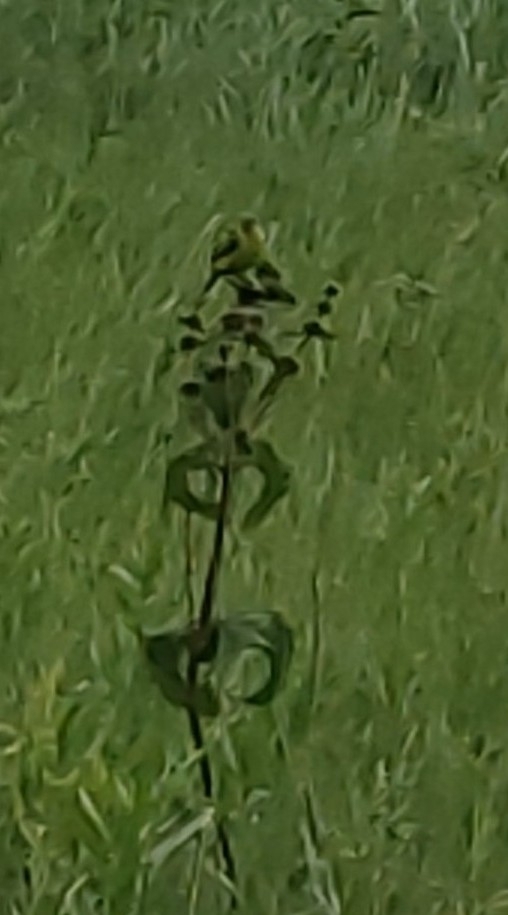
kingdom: Animalia
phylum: Chordata
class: Aves
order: Passeriformes
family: Motacillidae
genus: Motacilla
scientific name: Motacilla flava
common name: Western yellow wagtail
